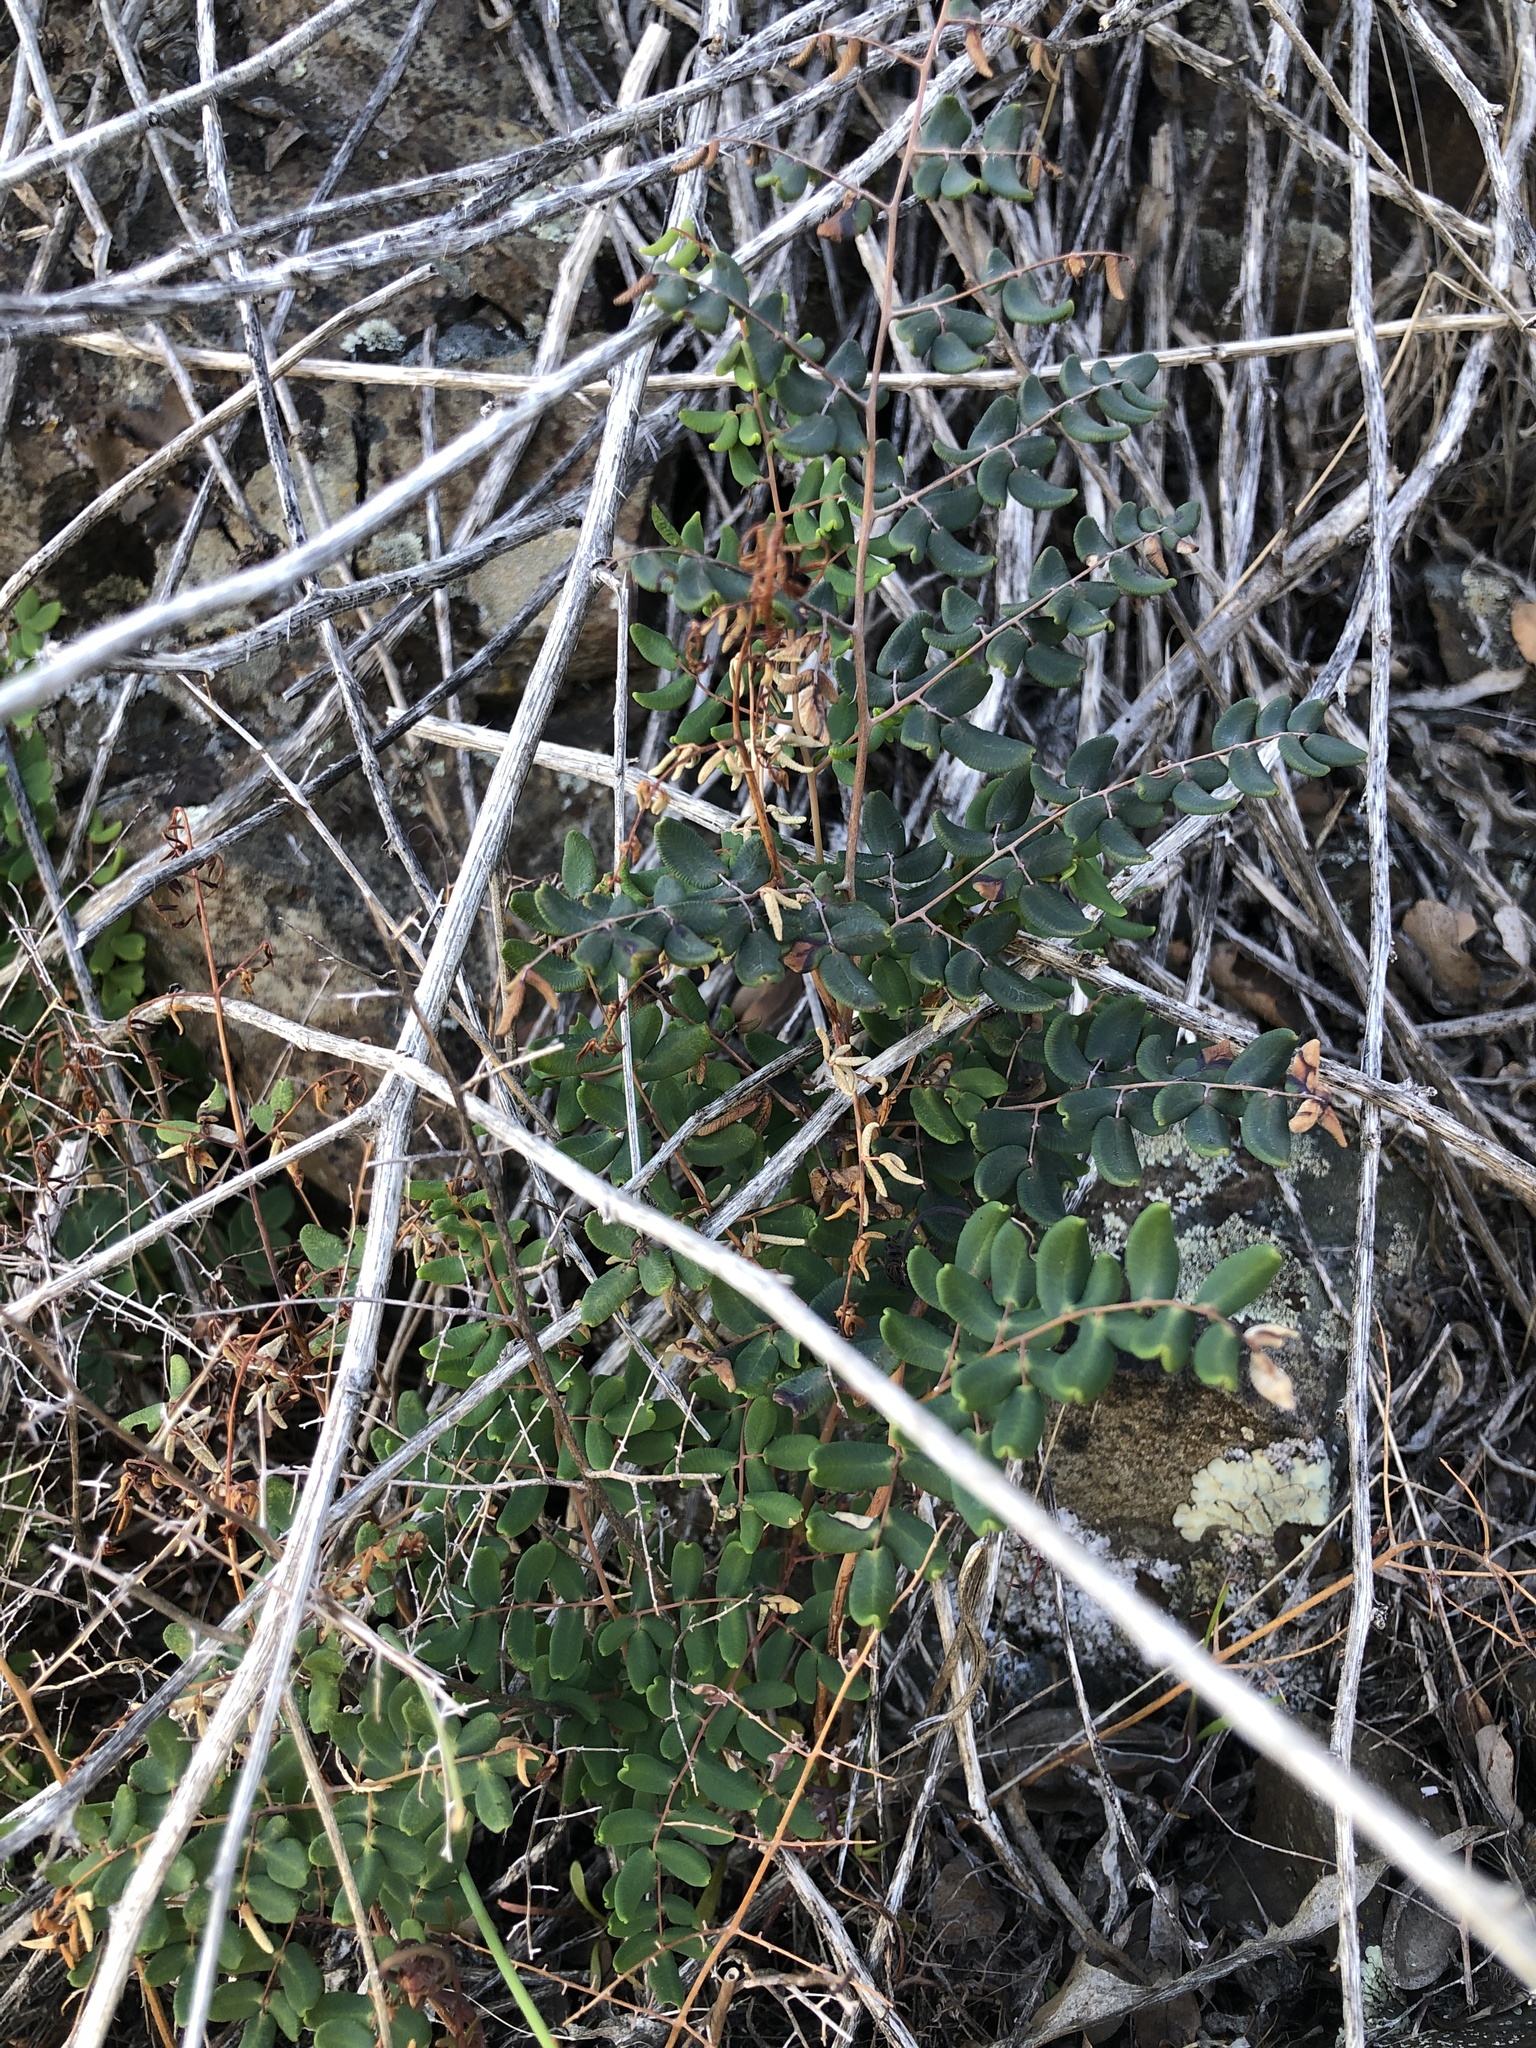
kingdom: Plantae
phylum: Tracheophyta
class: Polypodiopsida
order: Polypodiales
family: Pteridaceae
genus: Pellaea
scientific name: Pellaea andromedifolia
